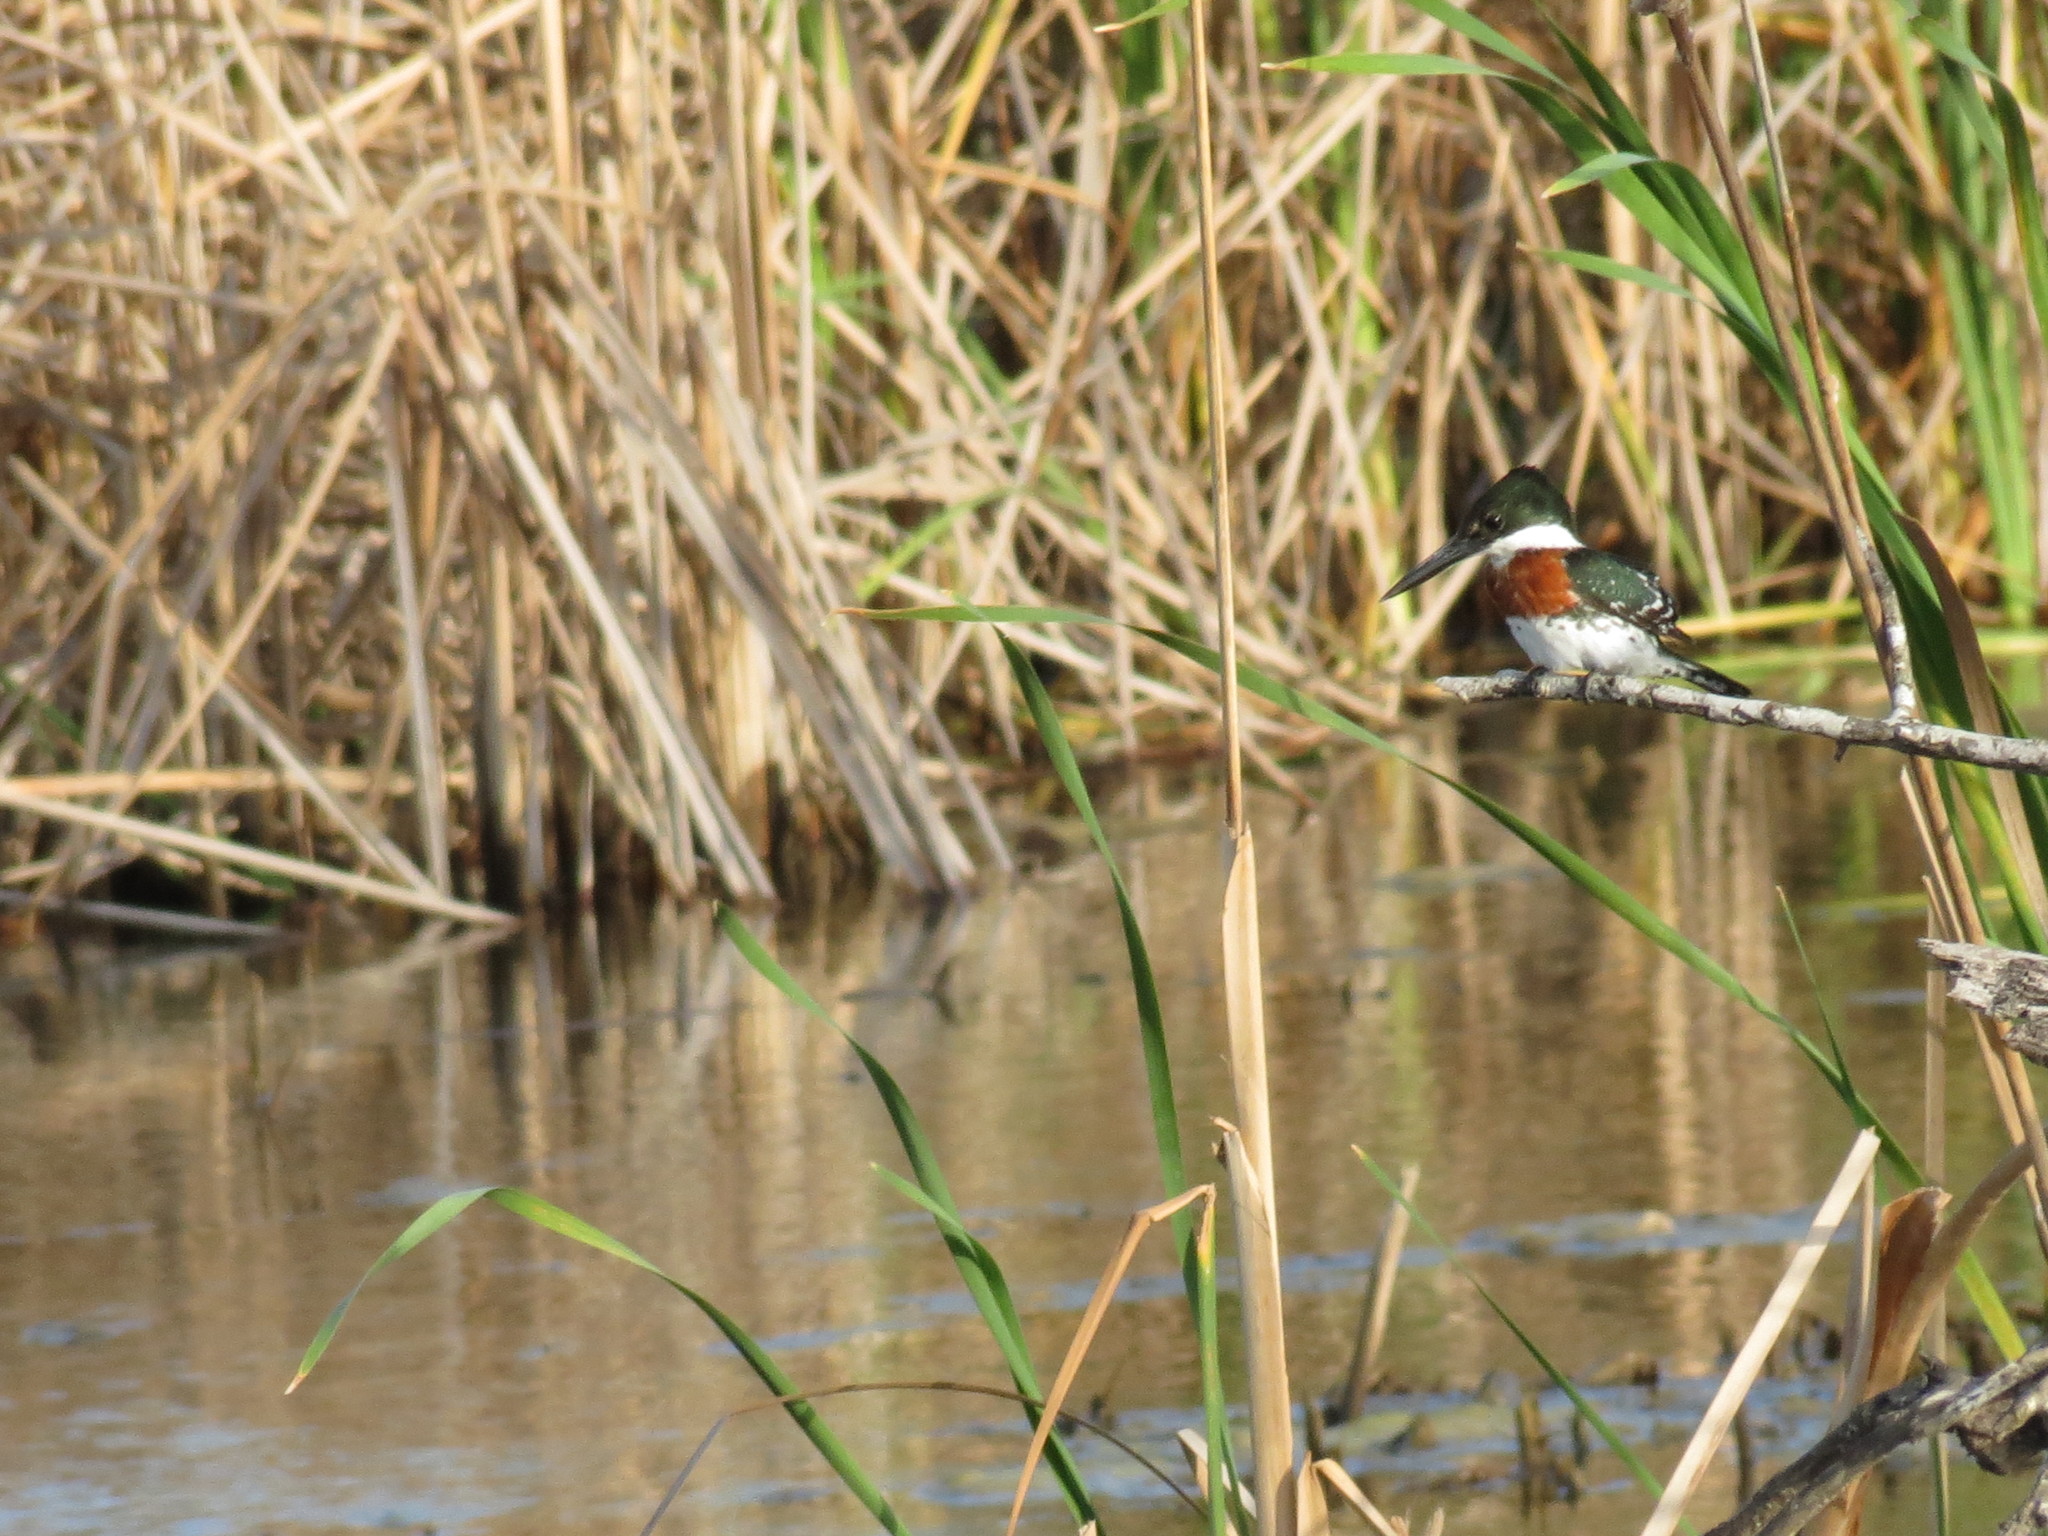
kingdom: Animalia
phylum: Chordata
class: Aves
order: Coraciiformes
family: Alcedinidae
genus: Chloroceryle
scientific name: Chloroceryle americana
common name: Green kingfisher
